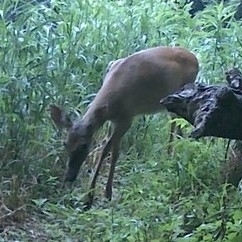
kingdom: Animalia
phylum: Chordata
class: Mammalia
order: Artiodactyla
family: Cervidae
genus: Odocoileus
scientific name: Odocoileus virginianus
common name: White-tailed deer
